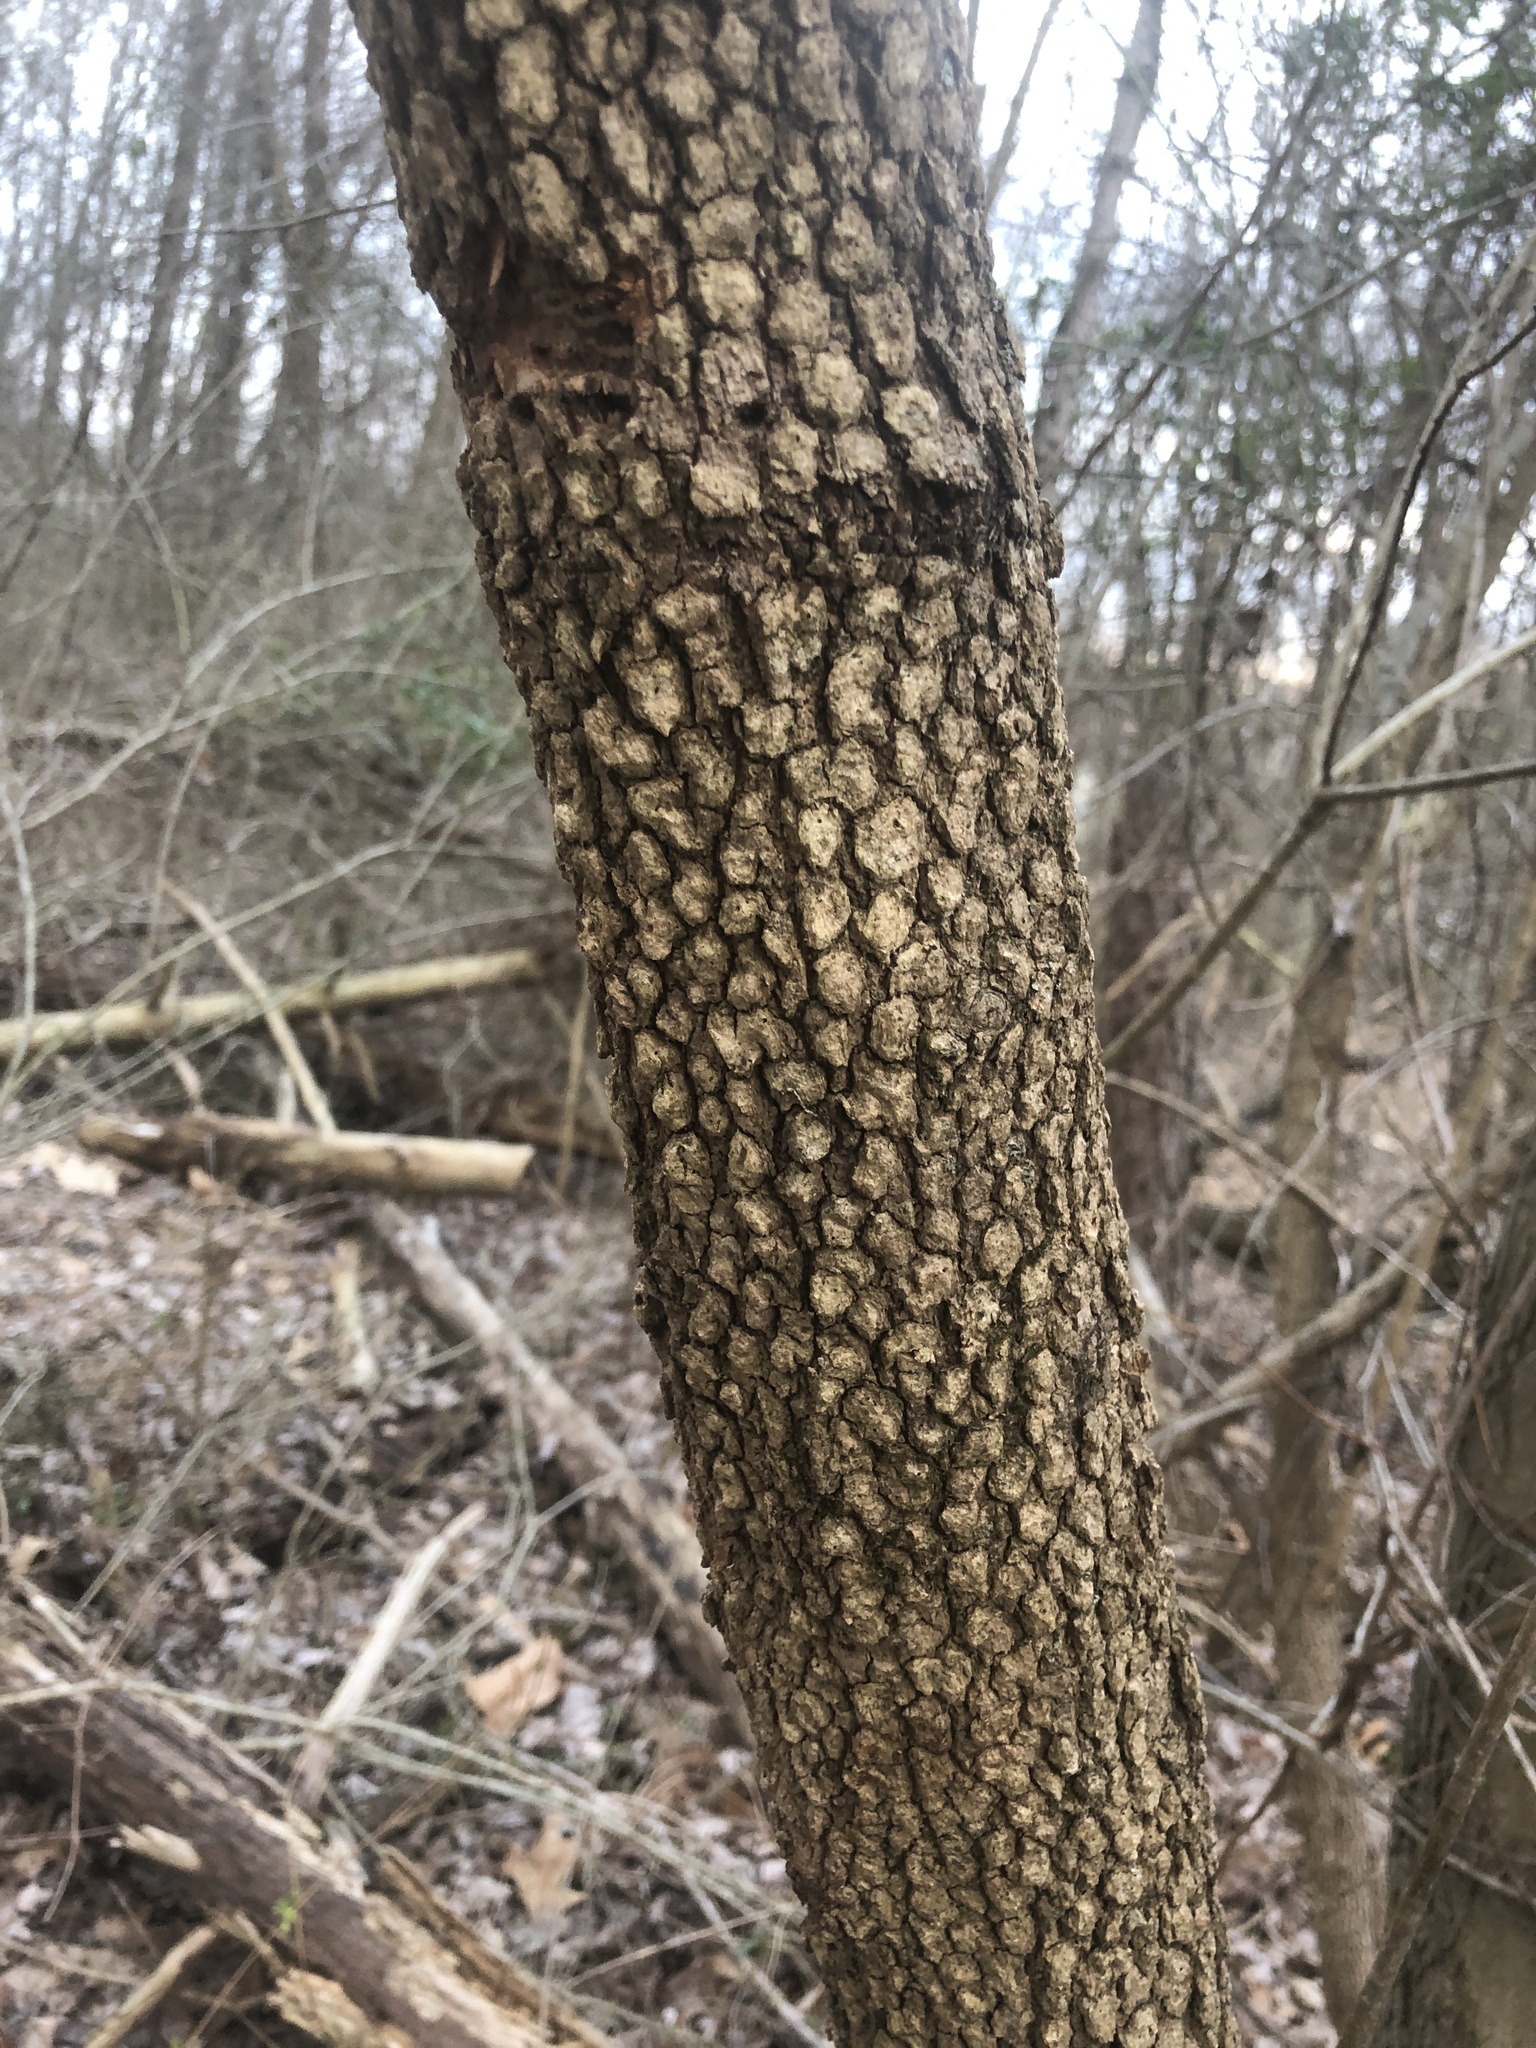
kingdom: Plantae
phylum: Tracheophyta
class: Magnoliopsida
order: Dipsacales
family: Viburnaceae
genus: Viburnum
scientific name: Viburnum prunifolium
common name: Black haw
